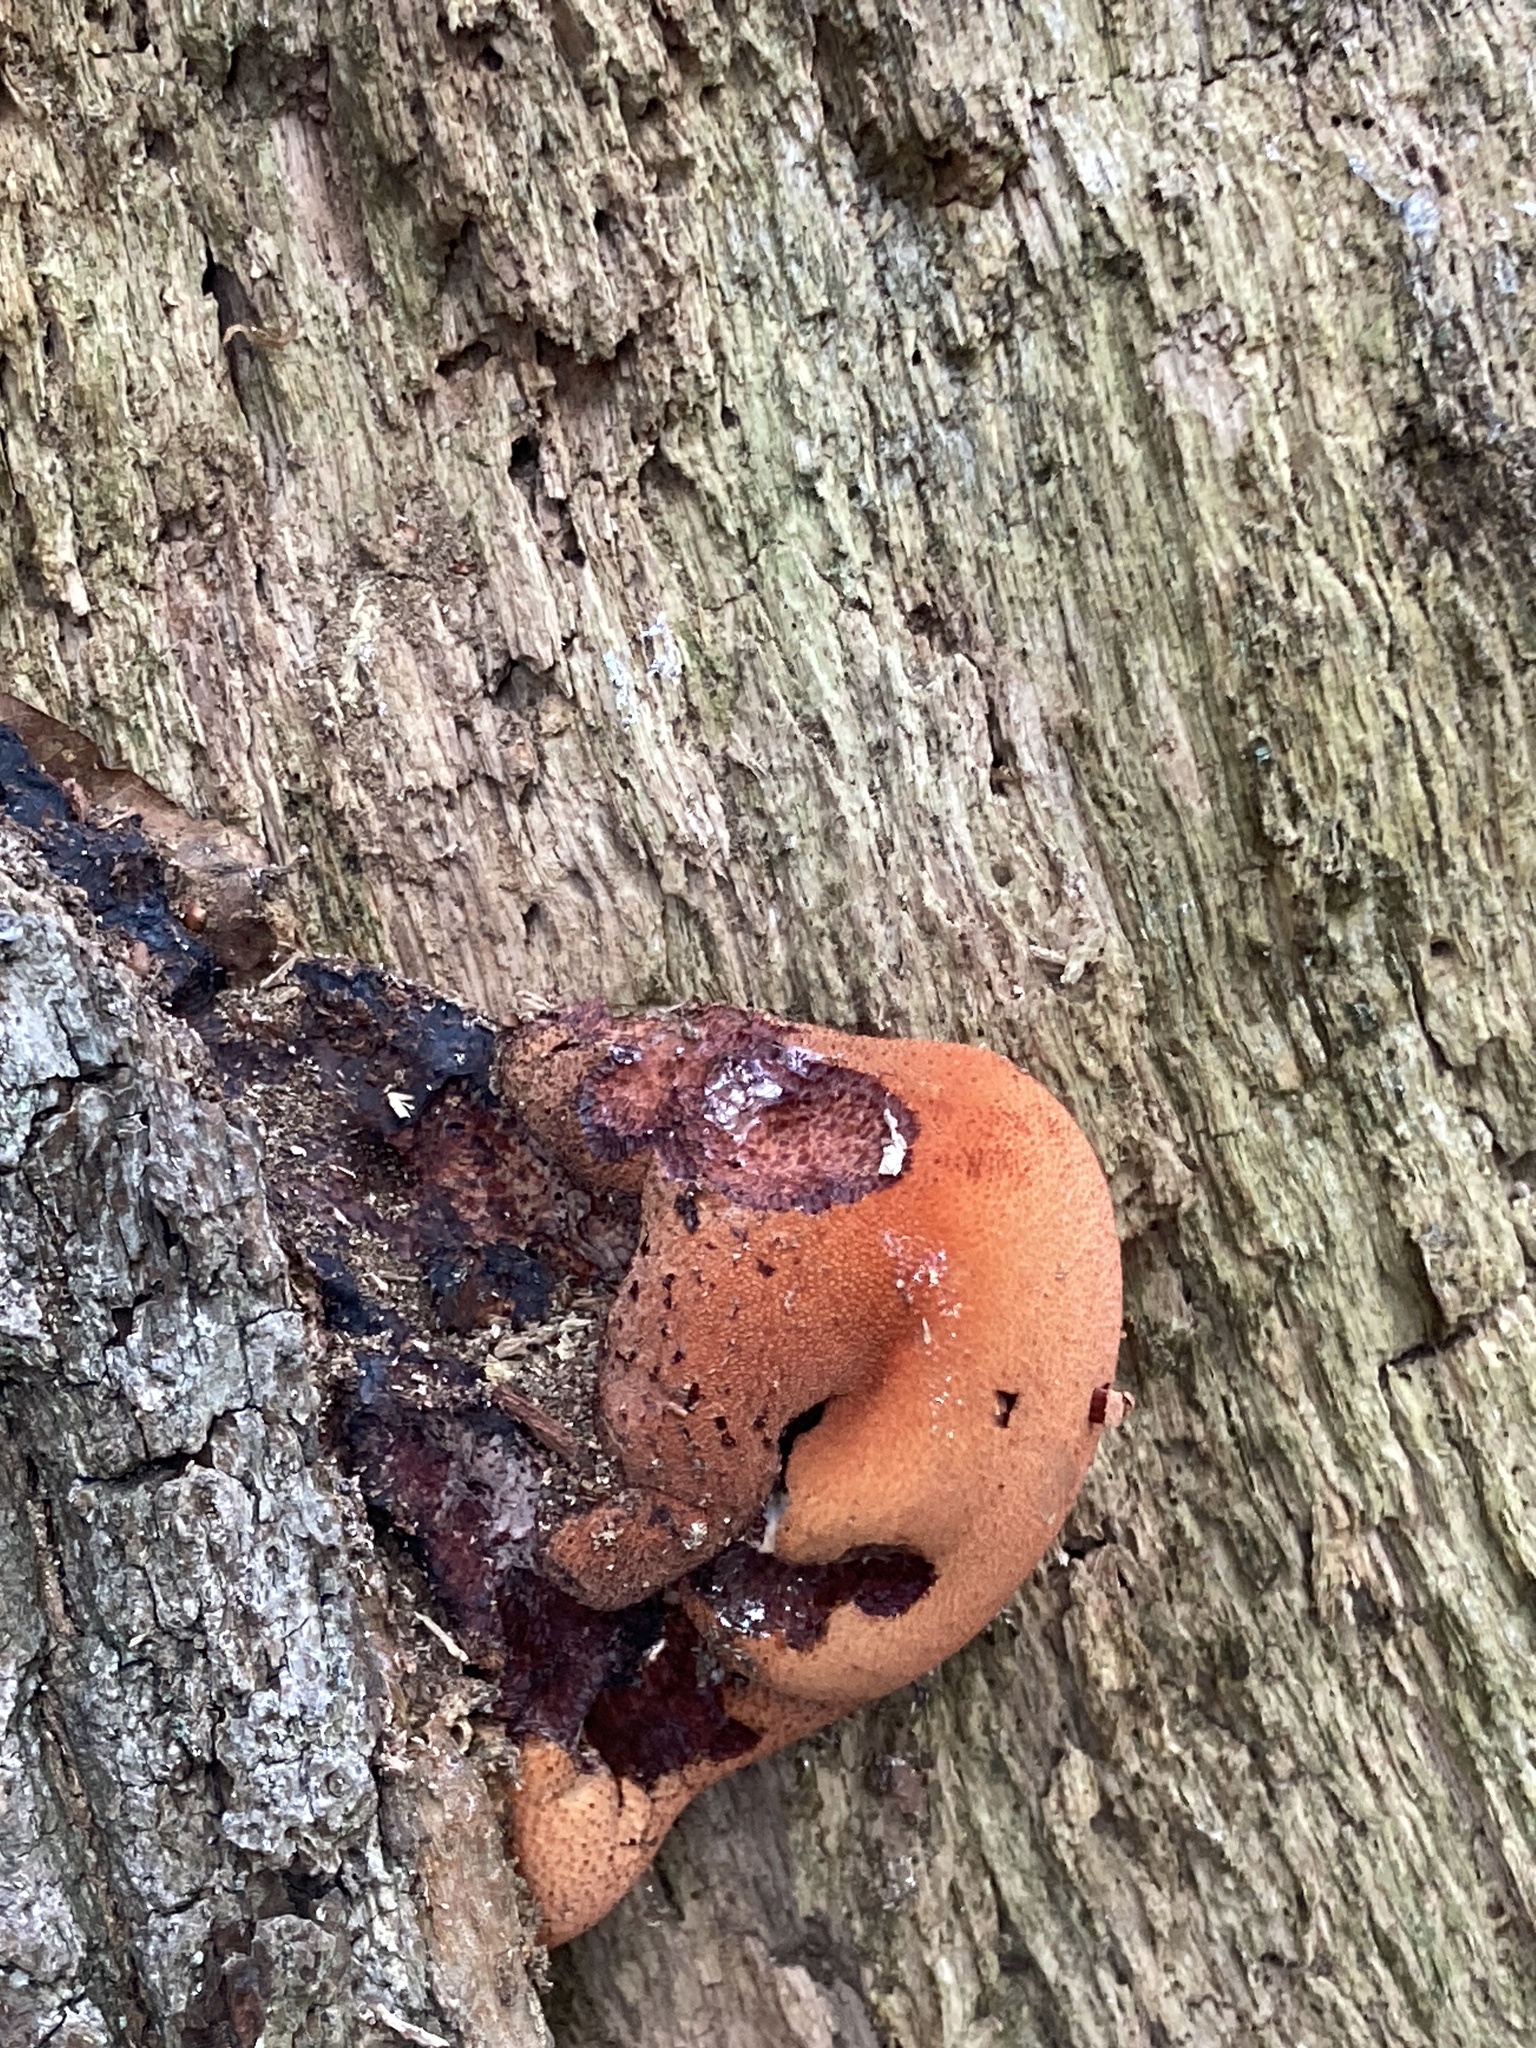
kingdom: Fungi
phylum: Basidiomycota
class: Agaricomycetes
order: Agaricales
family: Fistulinaceae
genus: Fistulina
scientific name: Fistulina hepatica
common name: Beef-steak fungus
